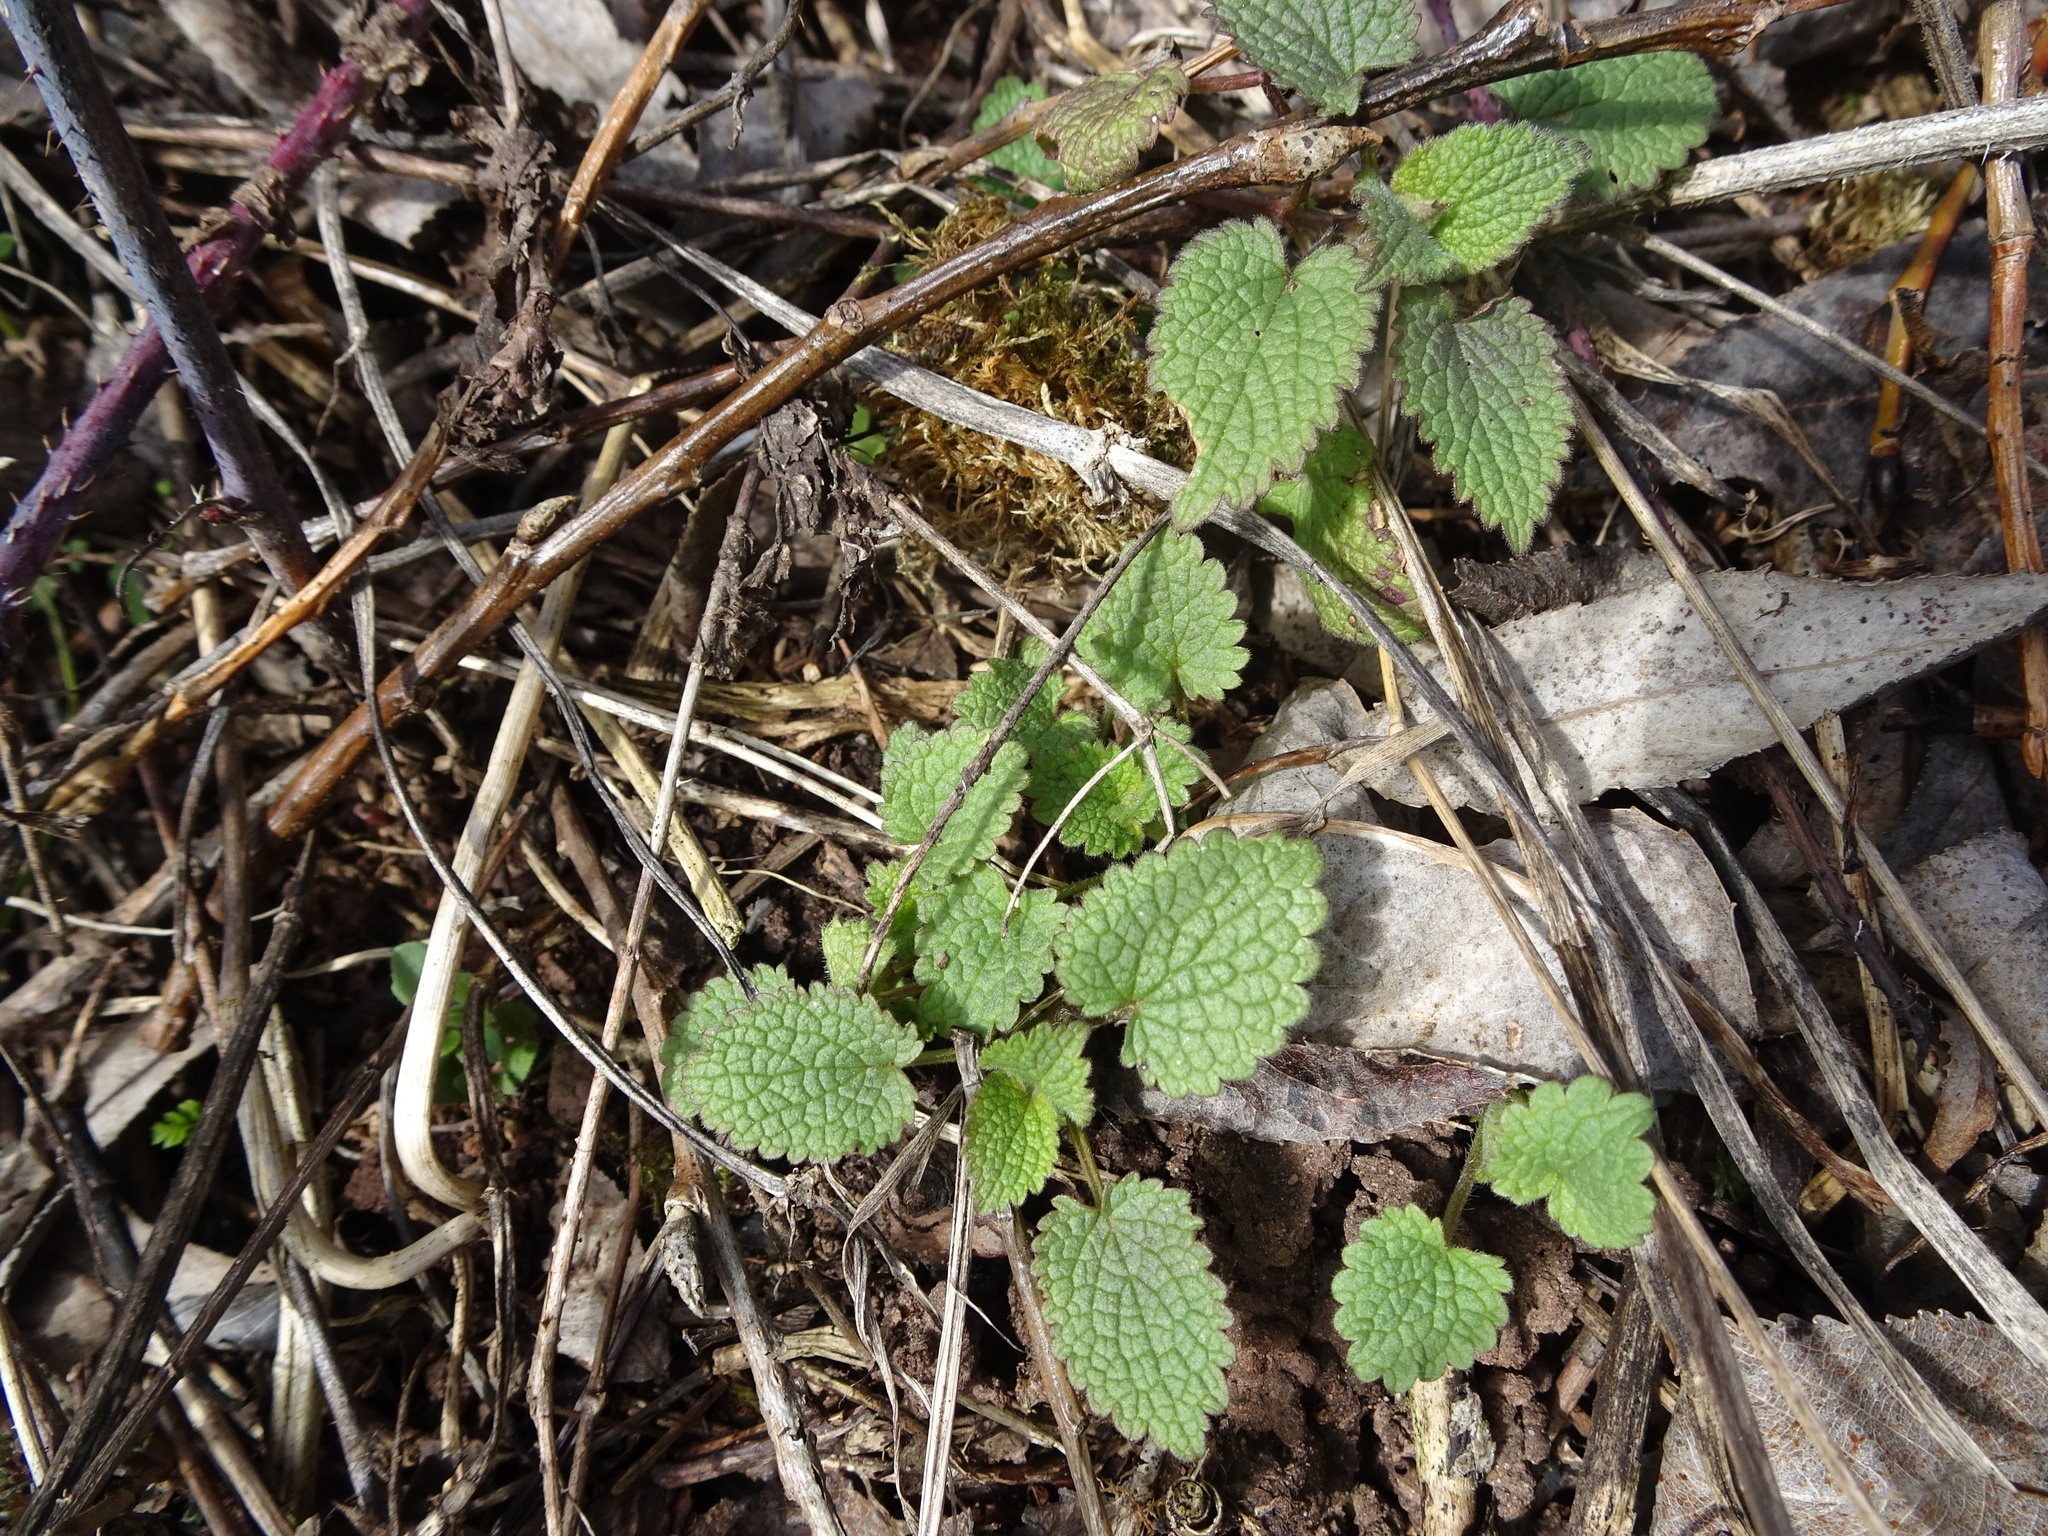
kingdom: Plantae
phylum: Tracheophyta
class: Magnoliopsida
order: Lamiales
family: Lamiaceae
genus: Stachys
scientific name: Stachys sylvatica
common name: Hedge woundwort
